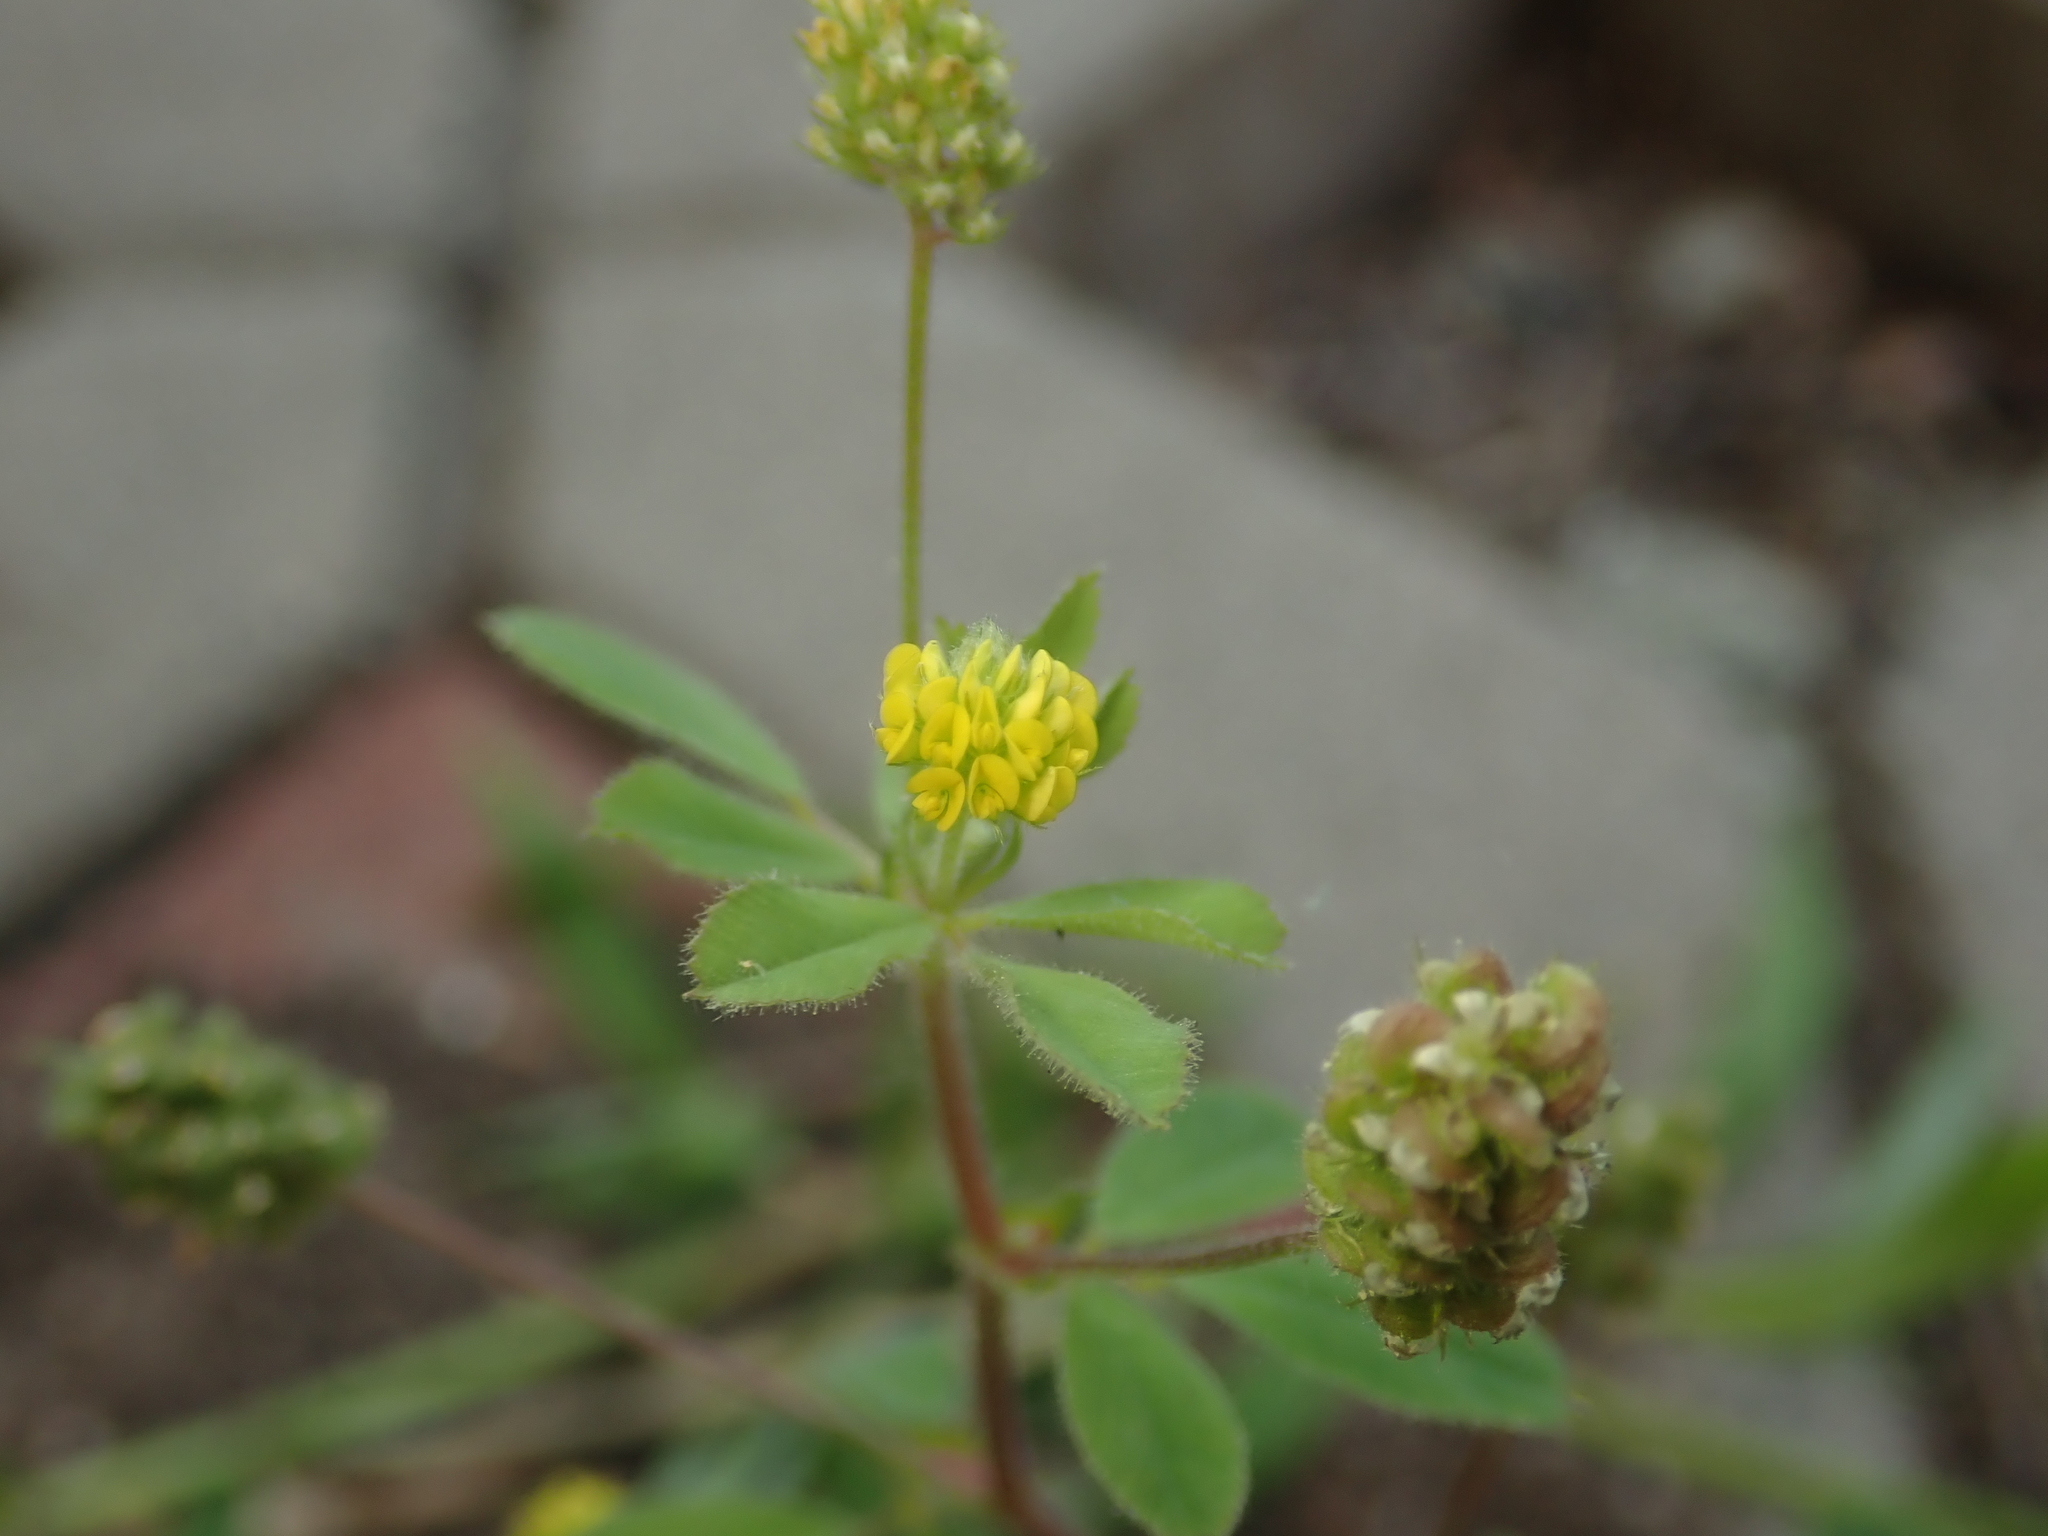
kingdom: Plantae
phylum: Tracheophyta
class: Magnoliopsida
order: Fabales
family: Fabaceae
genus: Medicago
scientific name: Medicago lupulina
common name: Black medick
